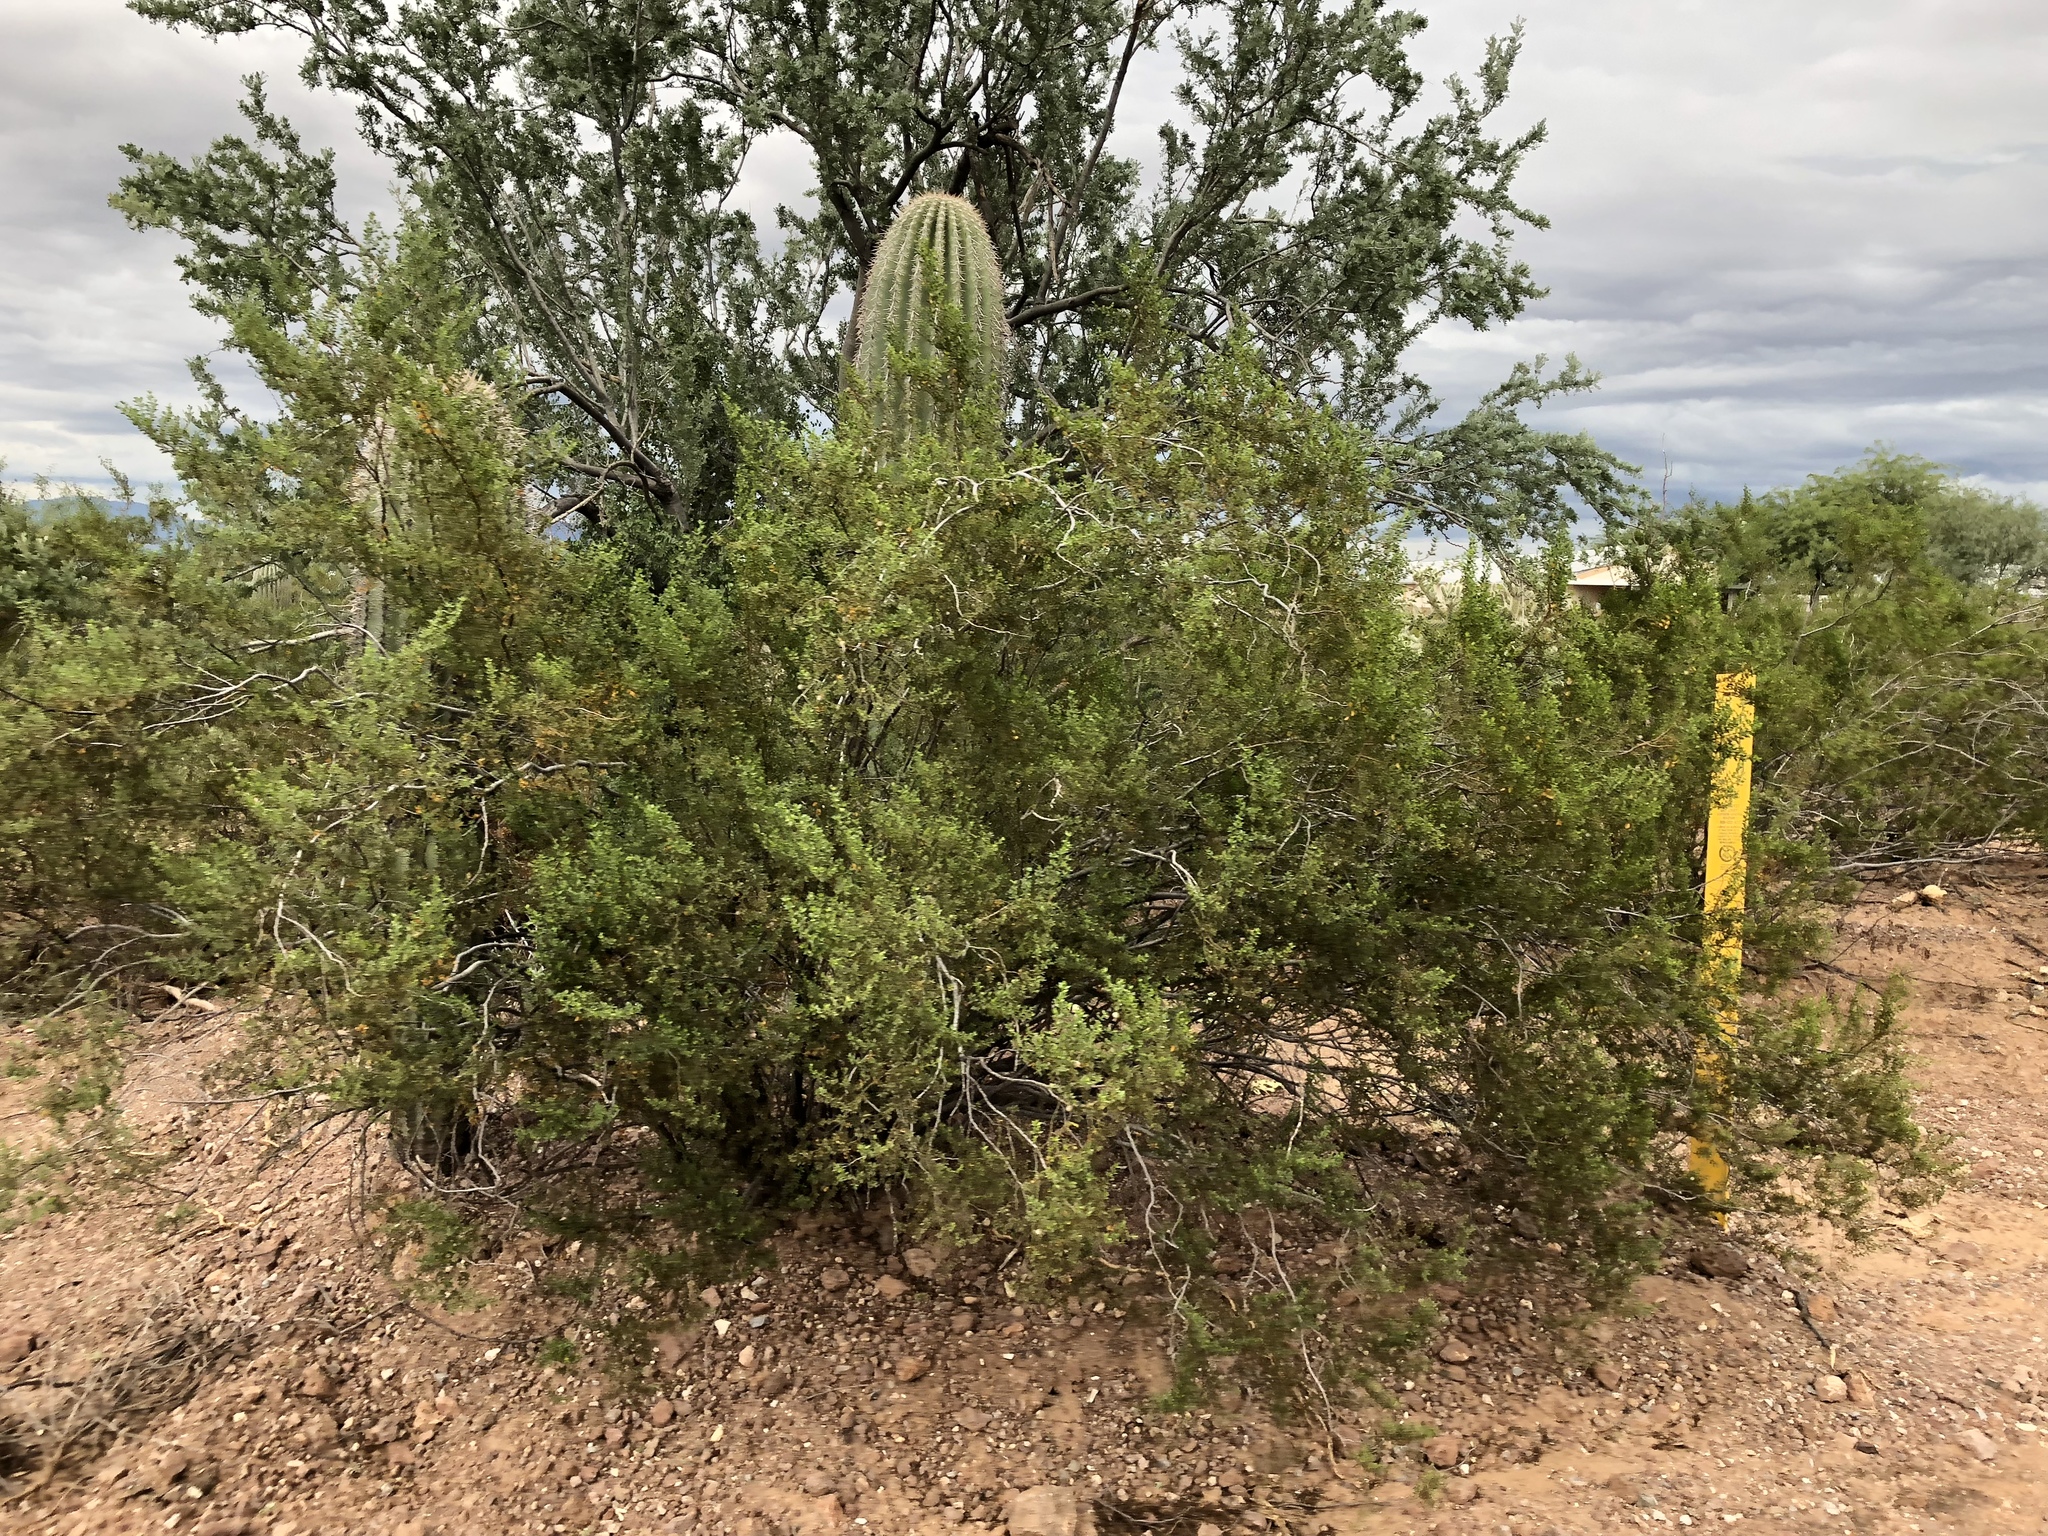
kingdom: Plantae
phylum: Tracheophyta
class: Magnoliopsida
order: Zygophyllales
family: Zygophyllaceae
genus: Larrea
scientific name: Larrea tridentata
